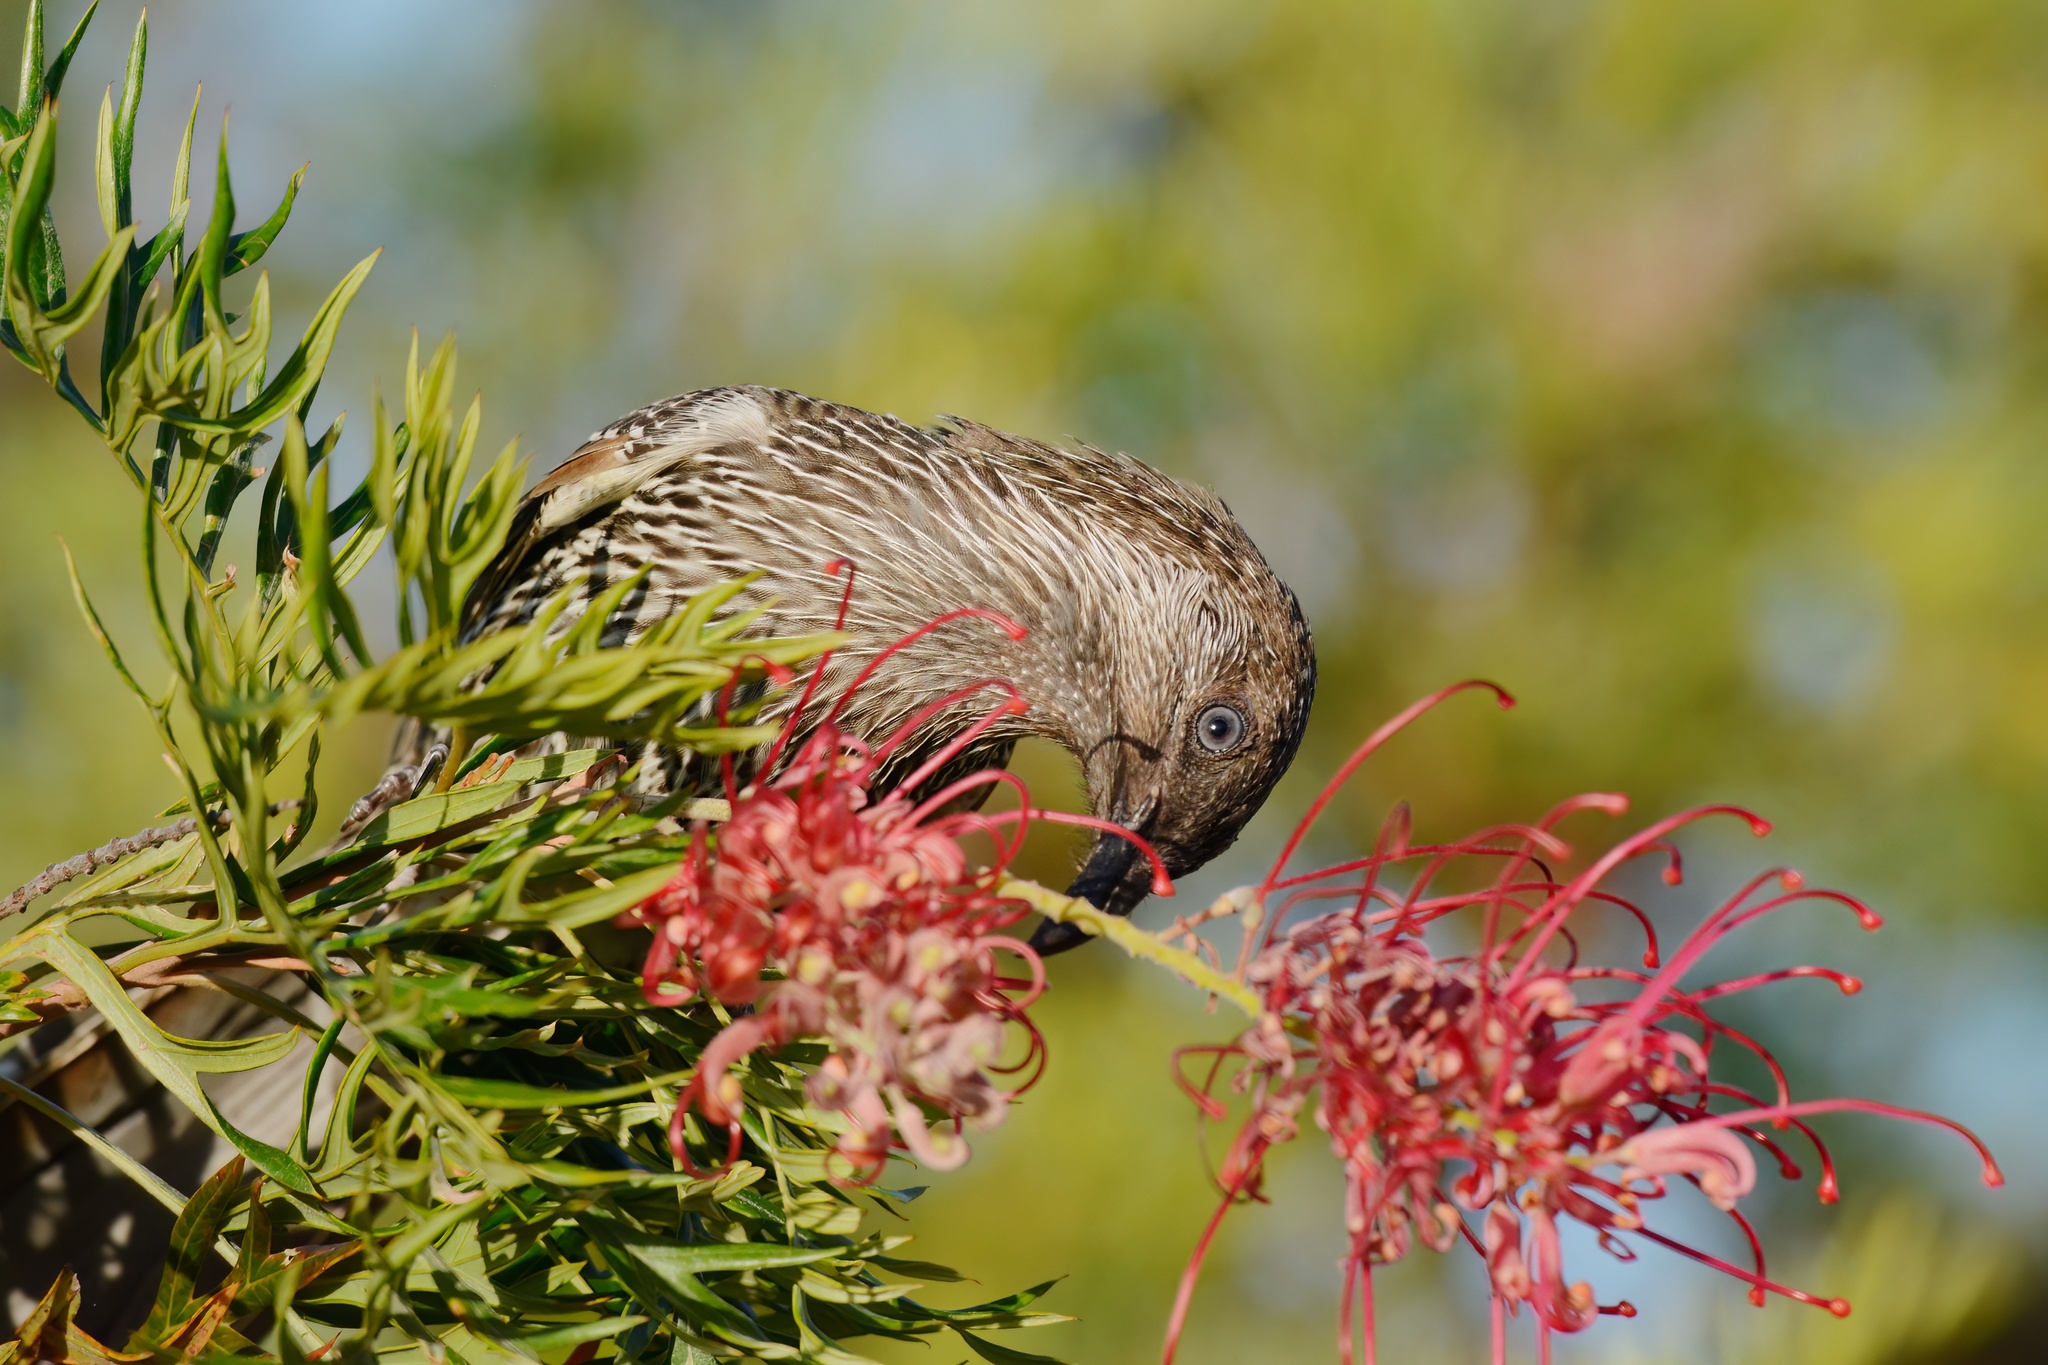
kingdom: Animalia
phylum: Chordata
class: Aves
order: Passeriformes
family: Meliphagidae
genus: Anthochaera
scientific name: Anthochaera chrysoptera
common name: Little wattlebird
